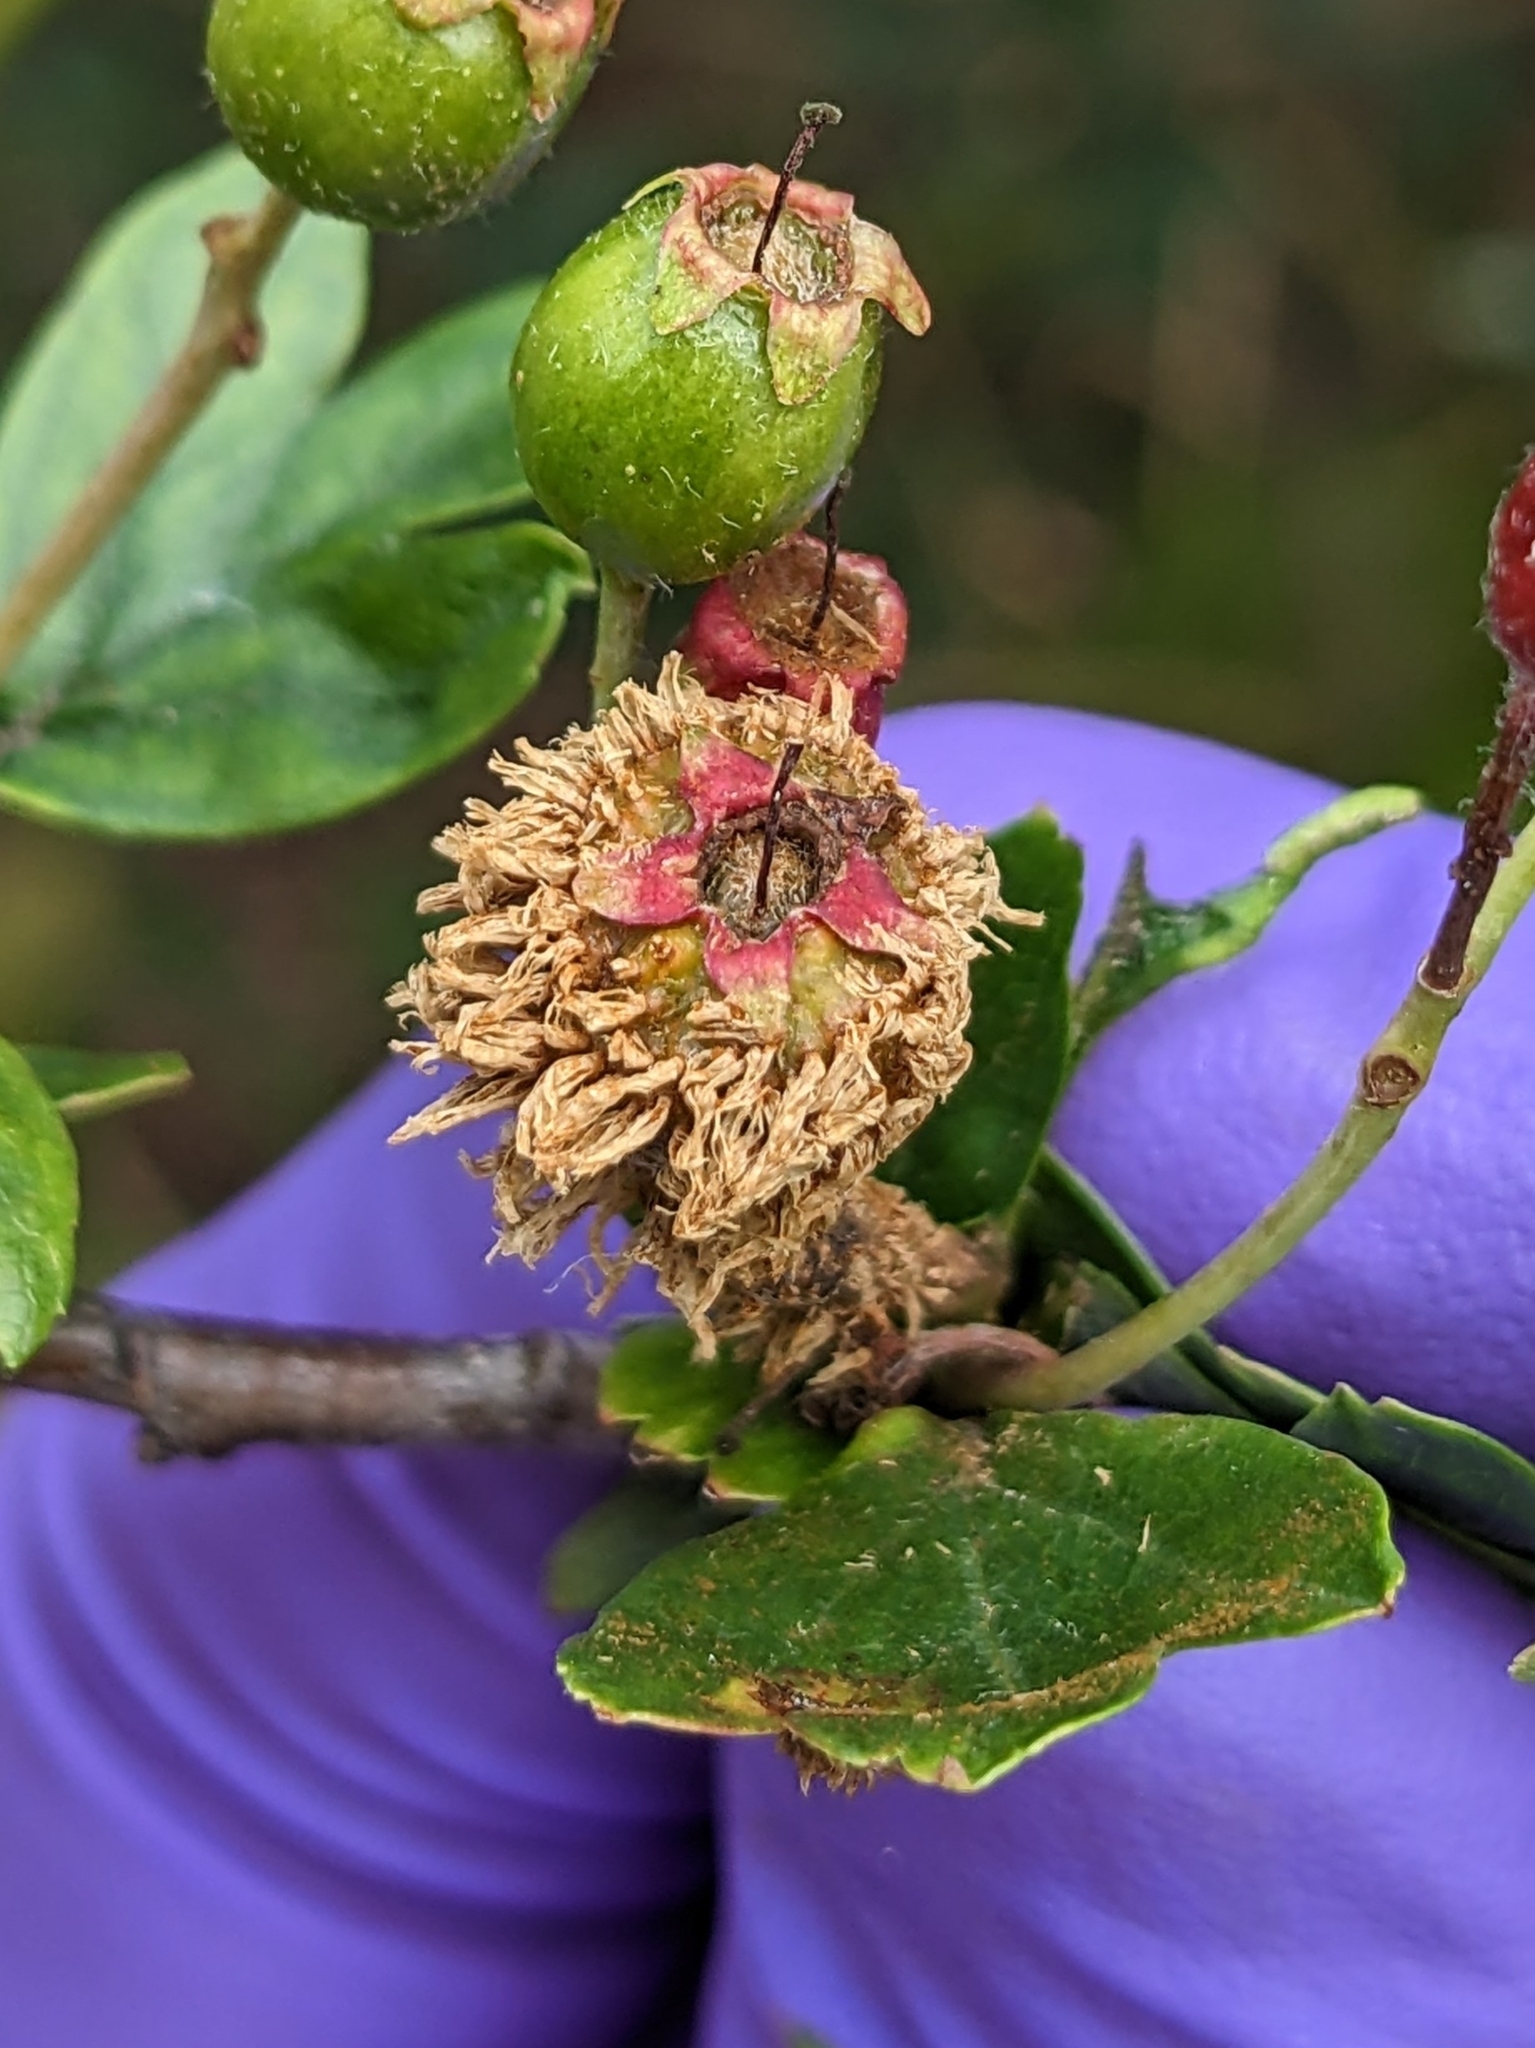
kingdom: Fungi
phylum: Basidiomycota
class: Pucciniomycetes
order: Pucciniales
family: Gymnosporangiaceae
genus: Gymnosporangium
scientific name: Gymnosporangium clavariiforme
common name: Tongues of fire
